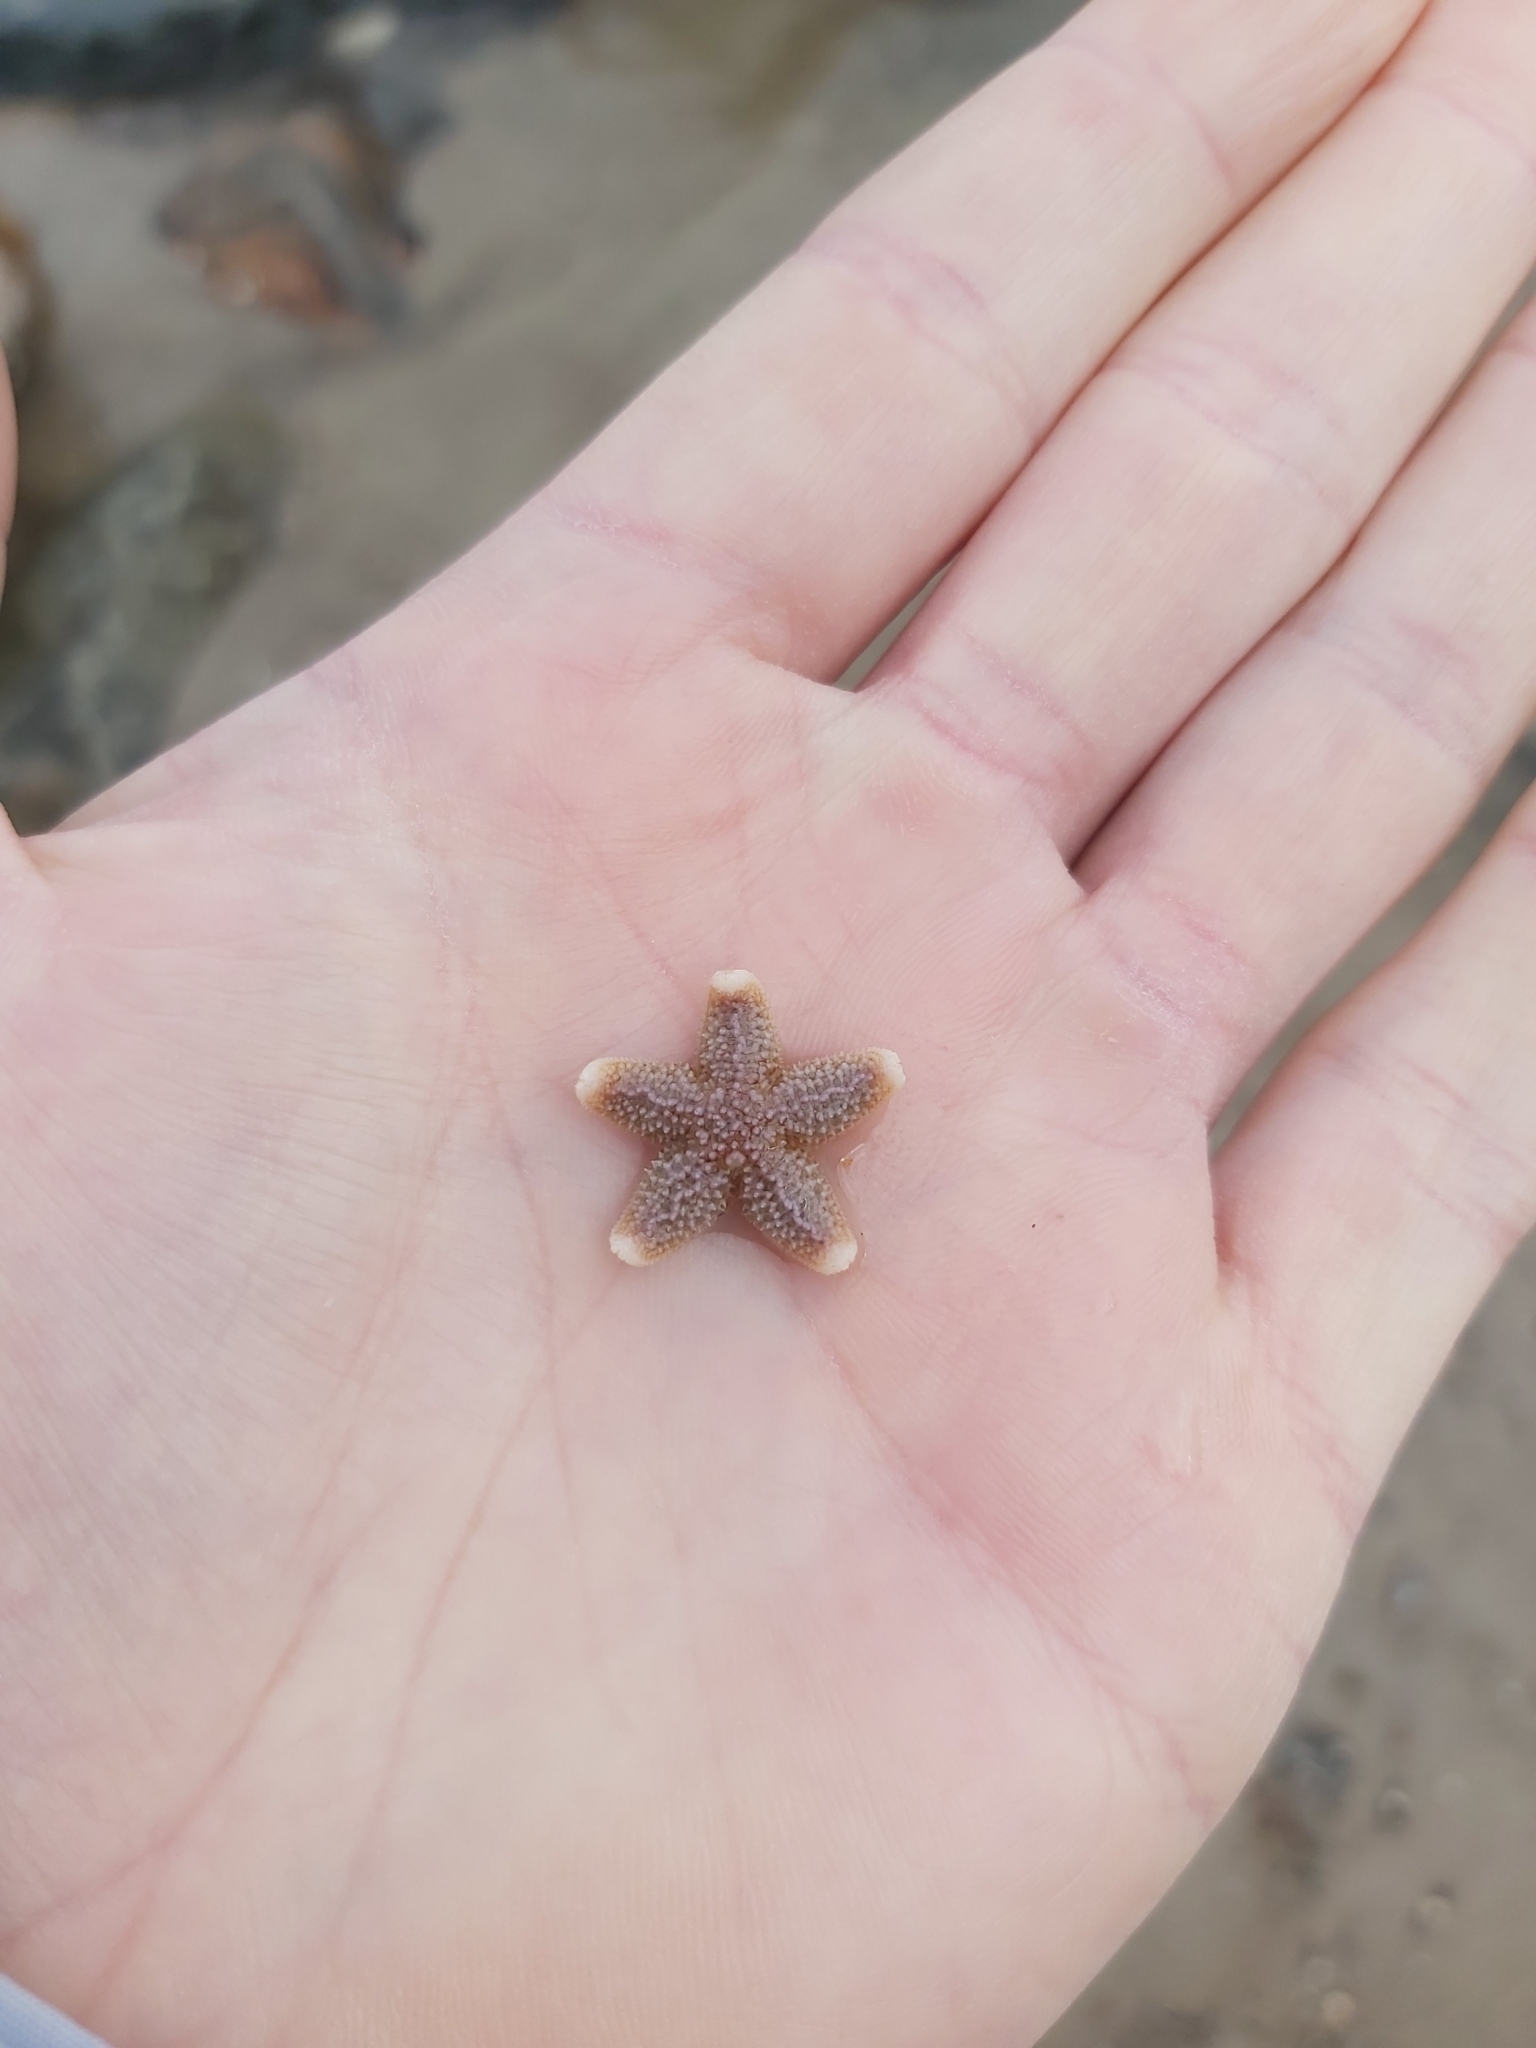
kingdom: Animalia
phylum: Echinodermata
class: Asteroidea
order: Forcipulatida
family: Asteriidae
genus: Asterias
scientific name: Asterias rubens
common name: Common starfish
